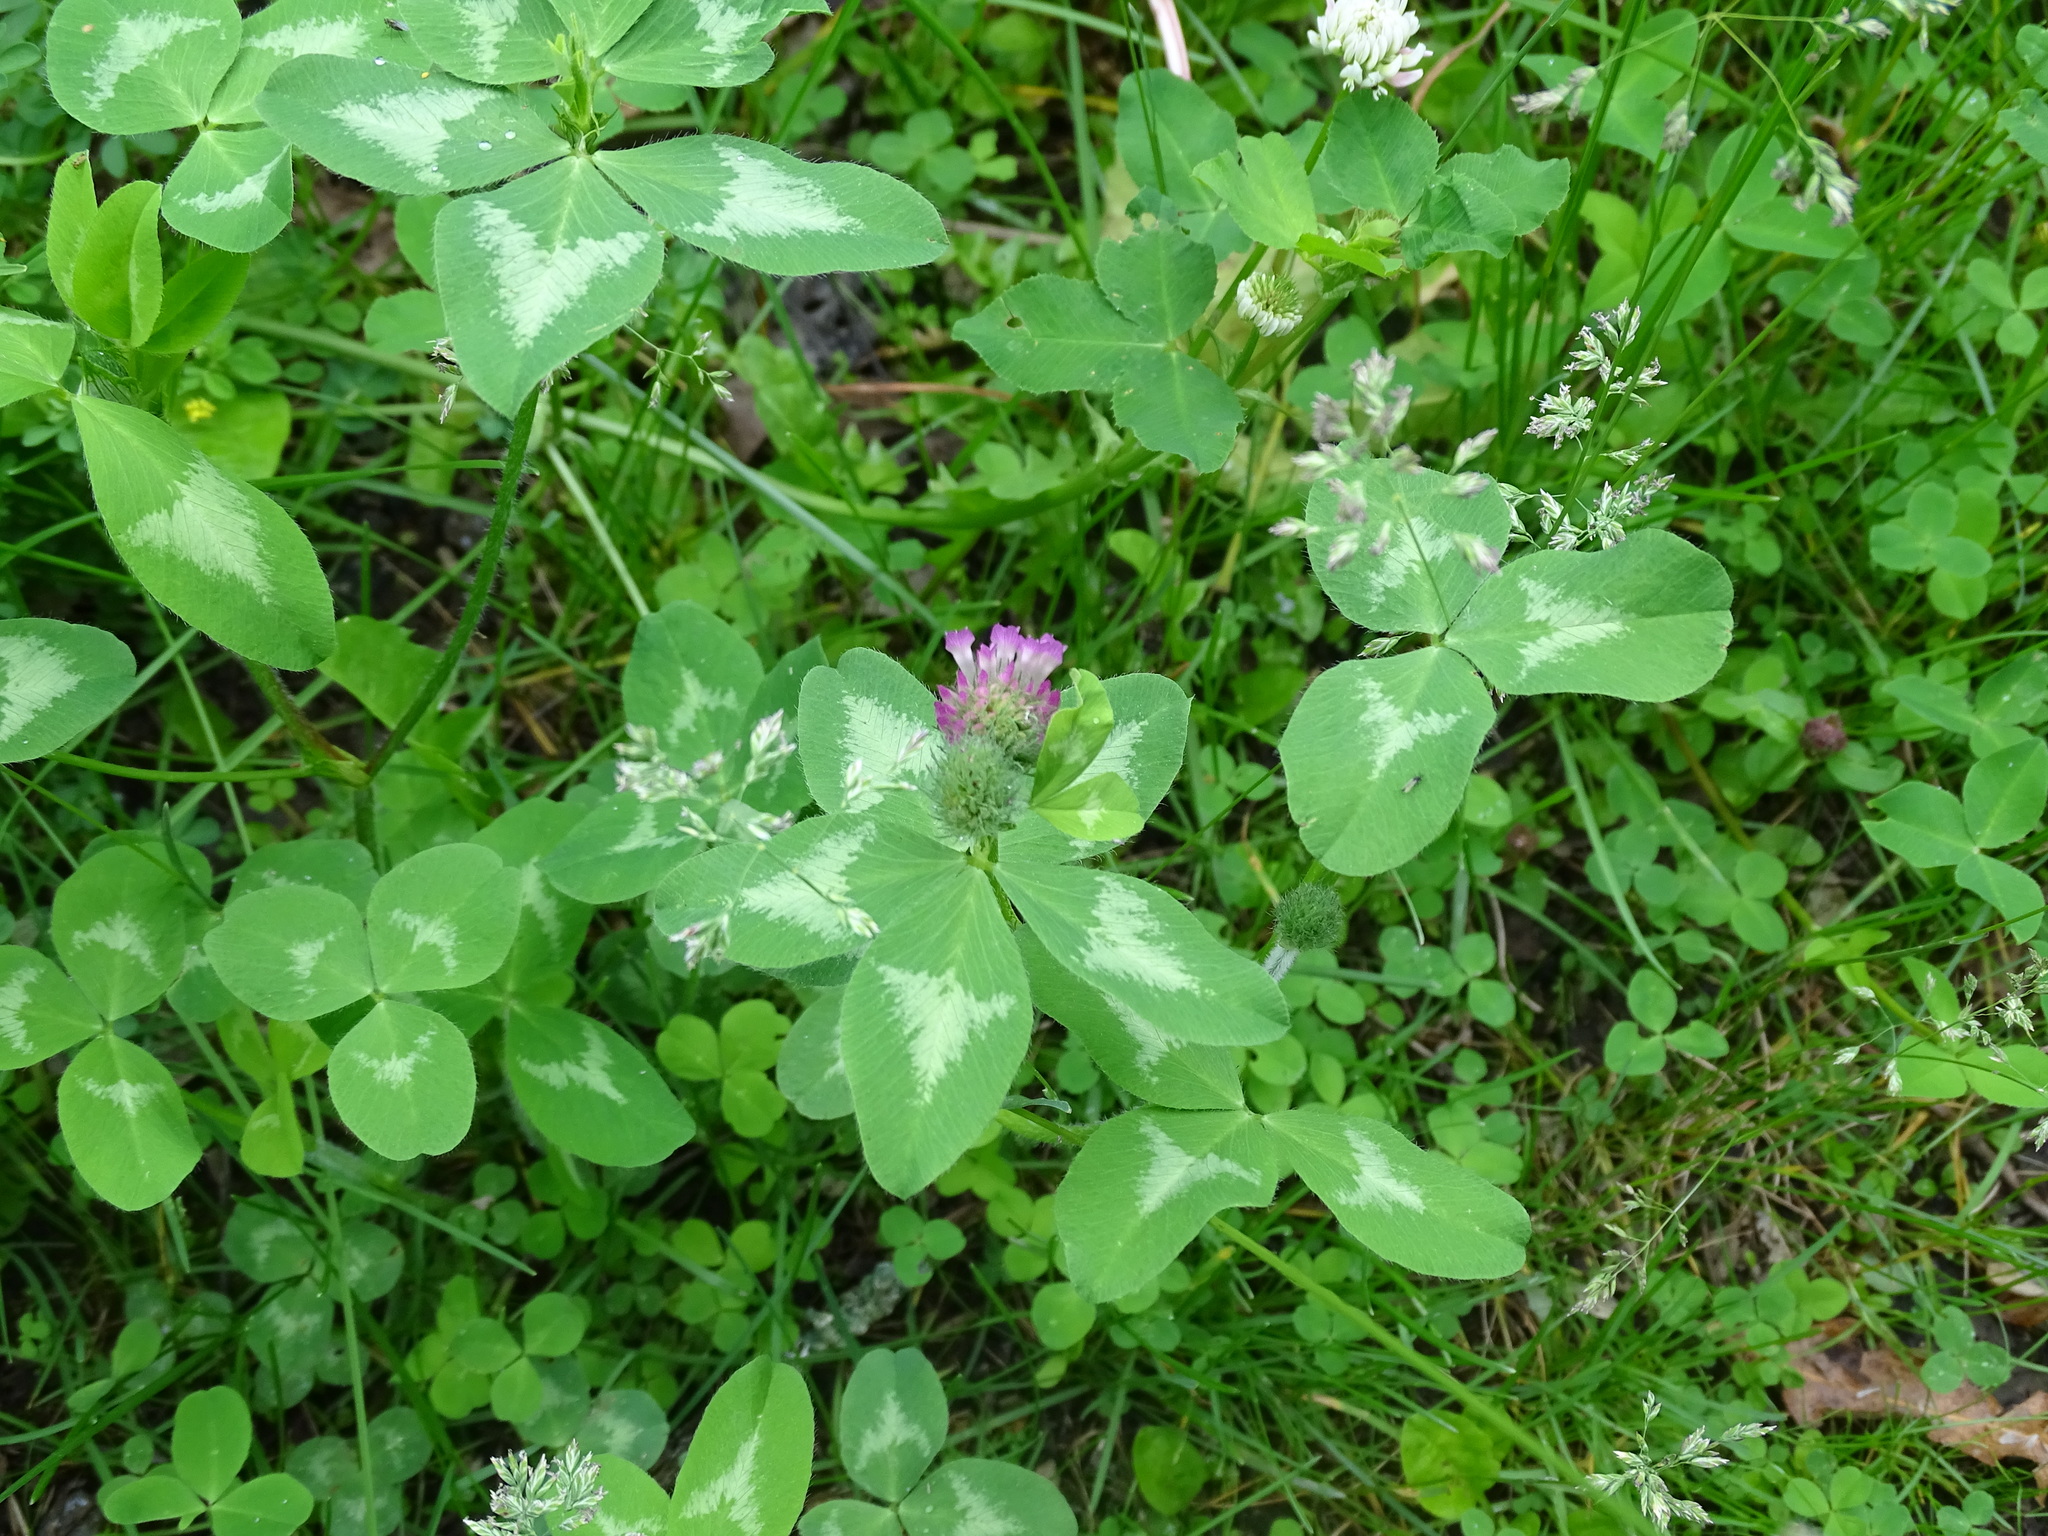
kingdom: Plantae
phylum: Tracheophyta
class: Magnoliopsida
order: Fabales
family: Fabaceae
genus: Trifolium
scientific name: Trifolium pratense
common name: Red clover
